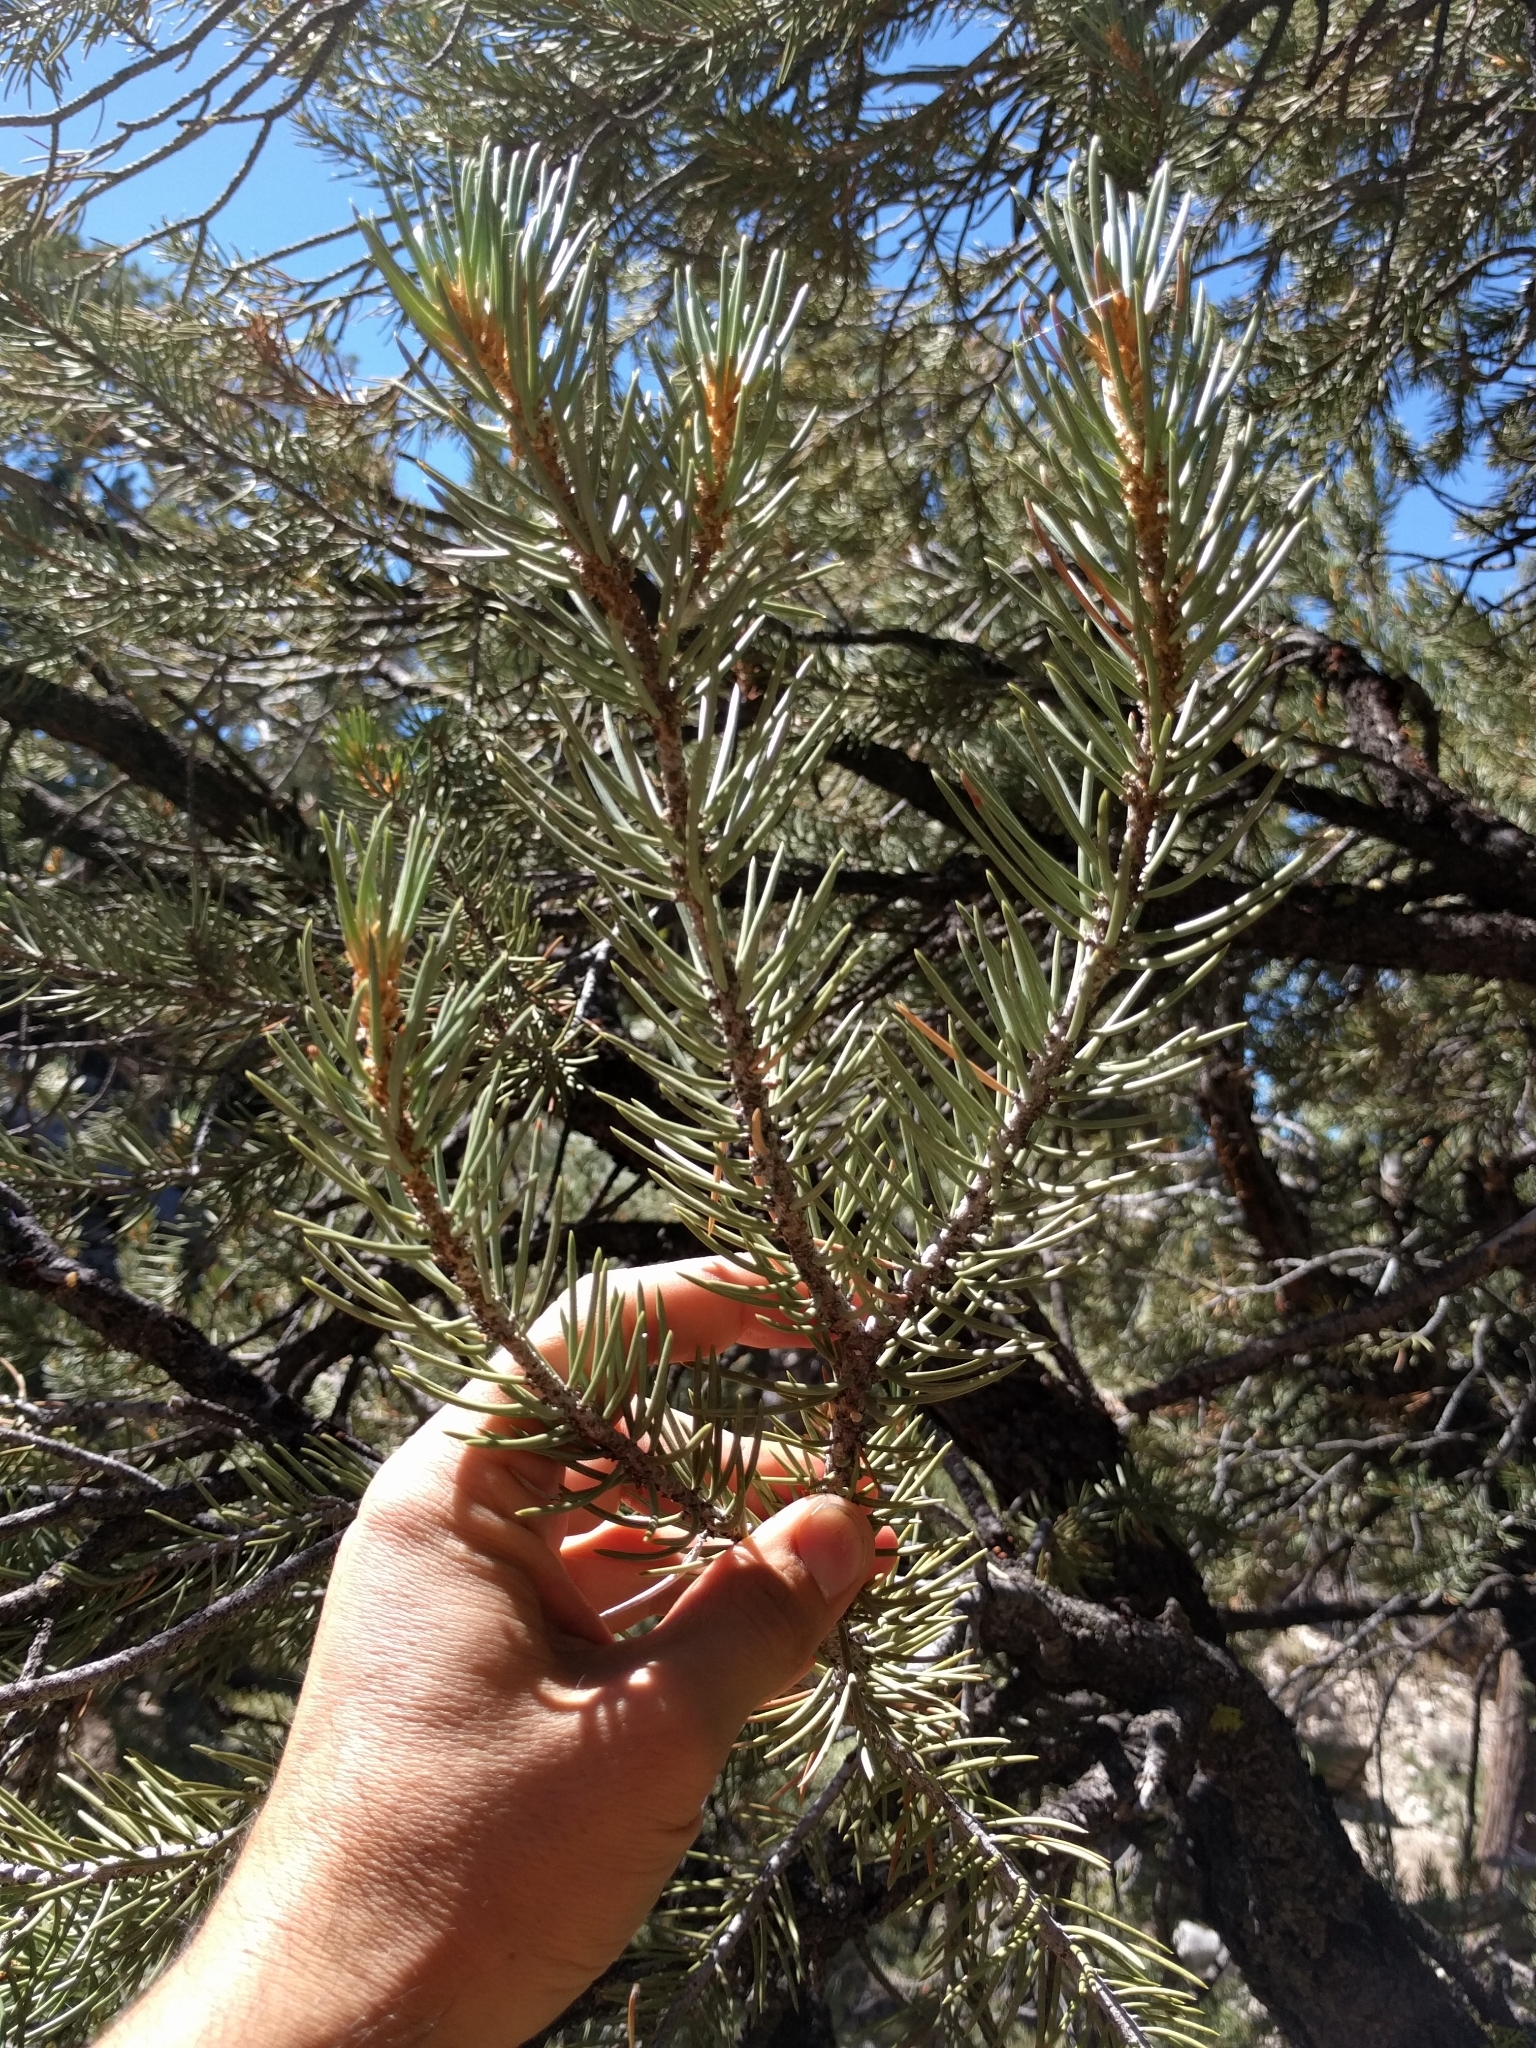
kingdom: Plantae
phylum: Tracheophyta
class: Pinopsida
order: Pinales
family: Pinaceae
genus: Pinus
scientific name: Pinus monophylla
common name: One-leaved nut pine
